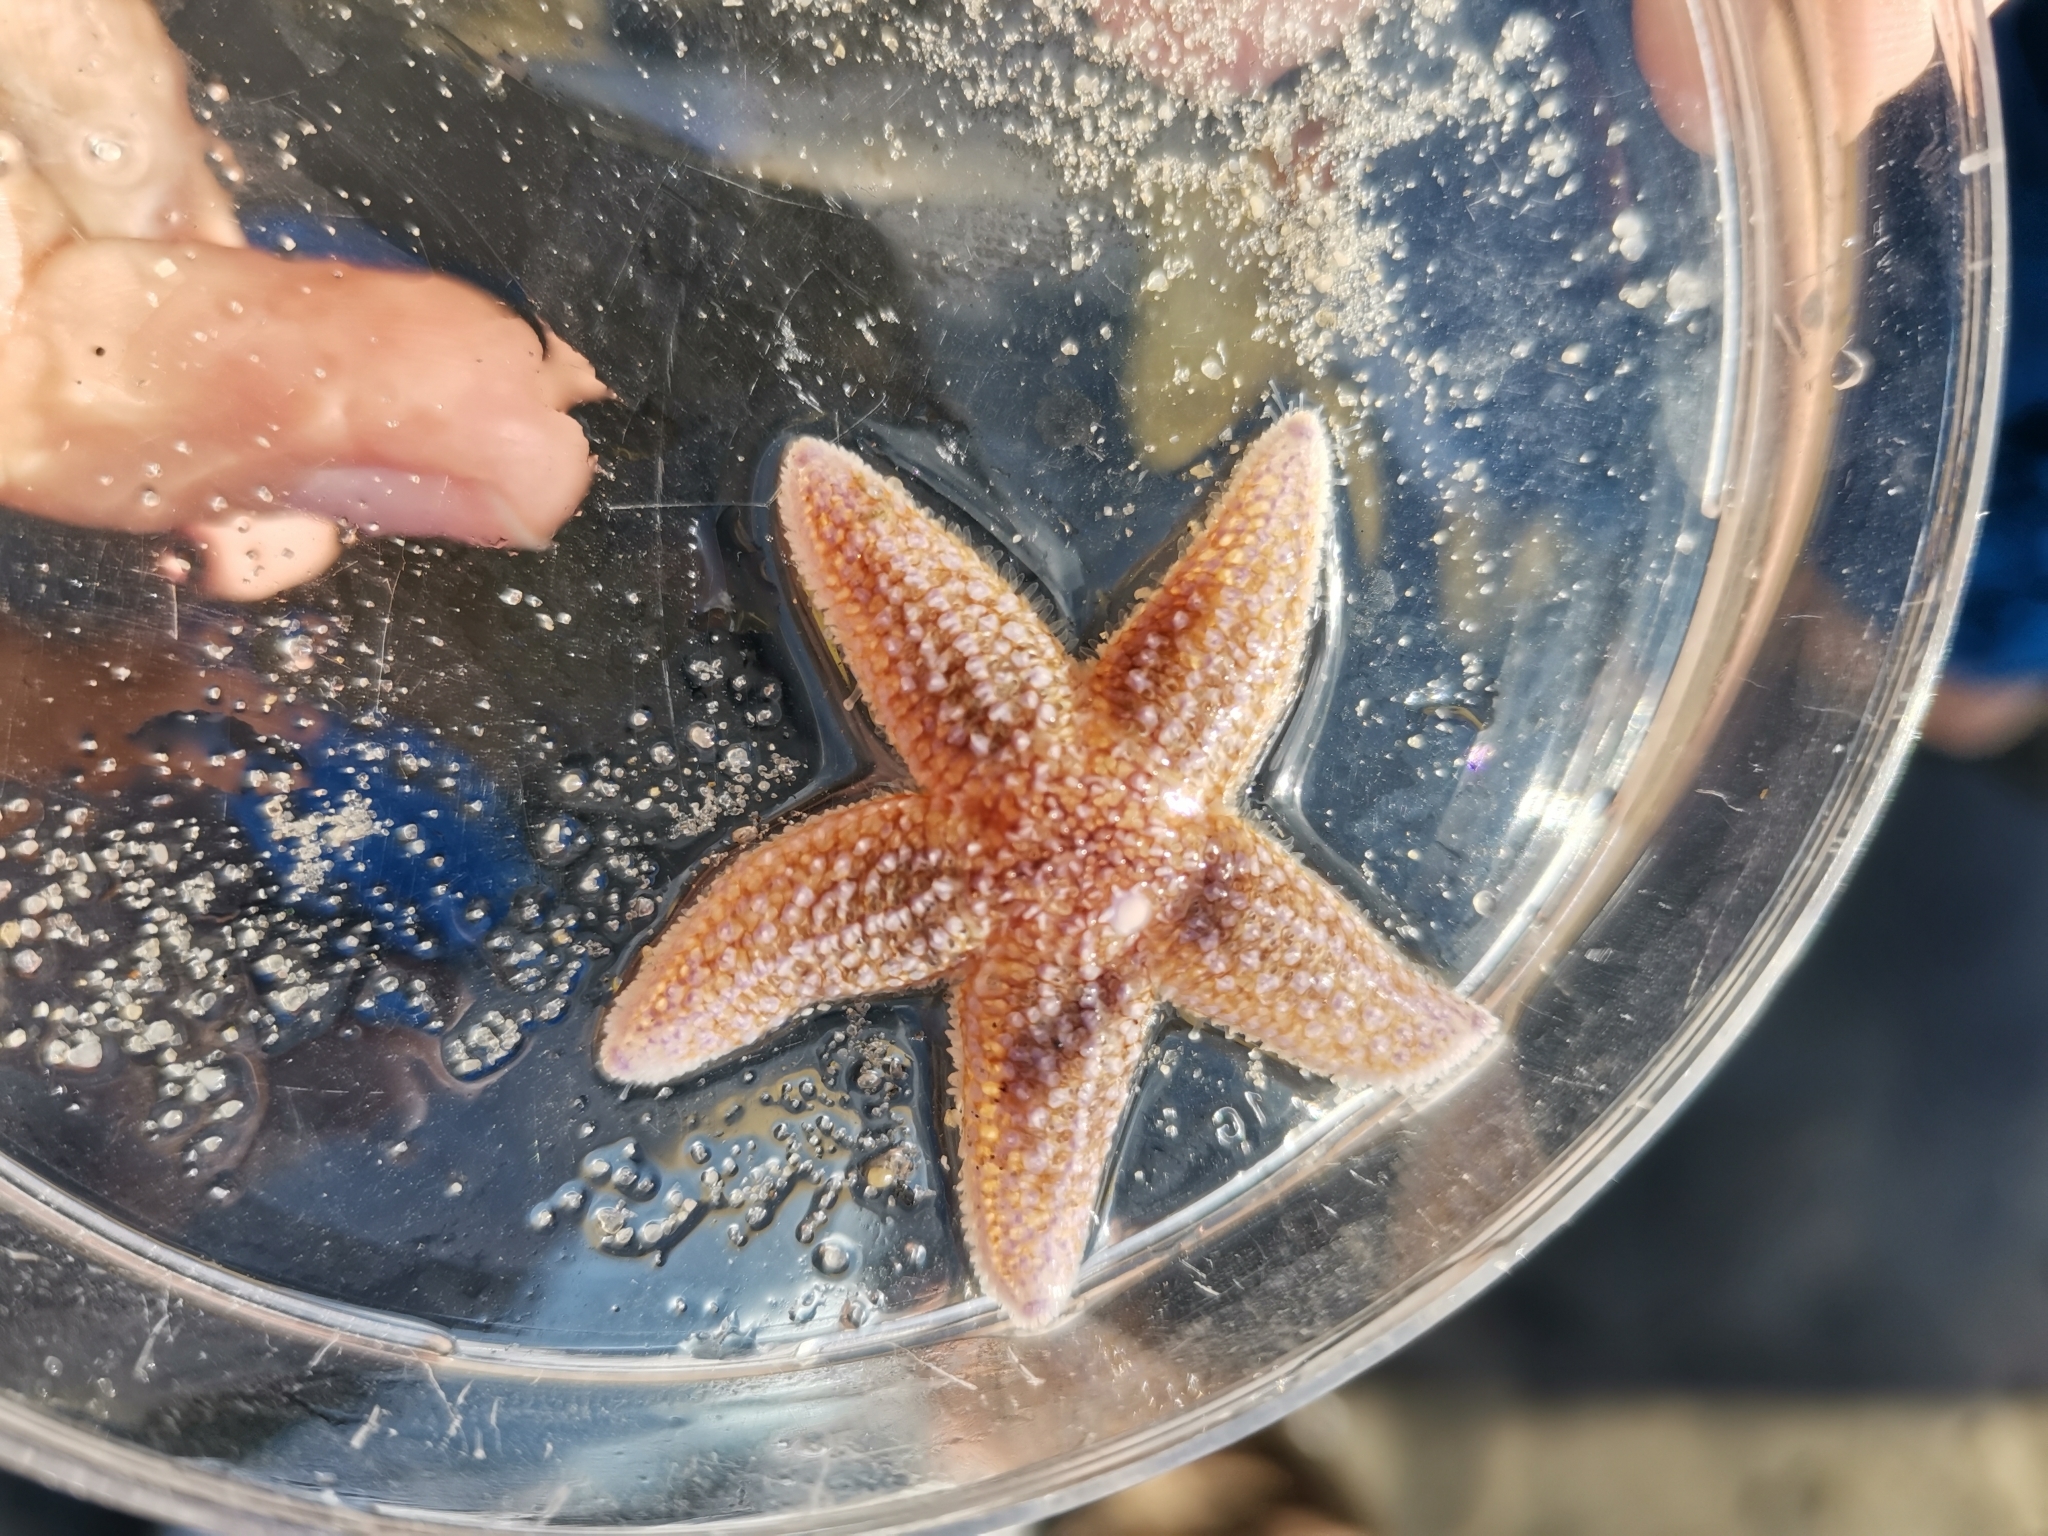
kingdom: Animalia
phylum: Echinodermata
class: Asteroidea
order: Forcipulatida
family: Asteriidae
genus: Asterias
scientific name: Asterias rubens
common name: Common starfish
